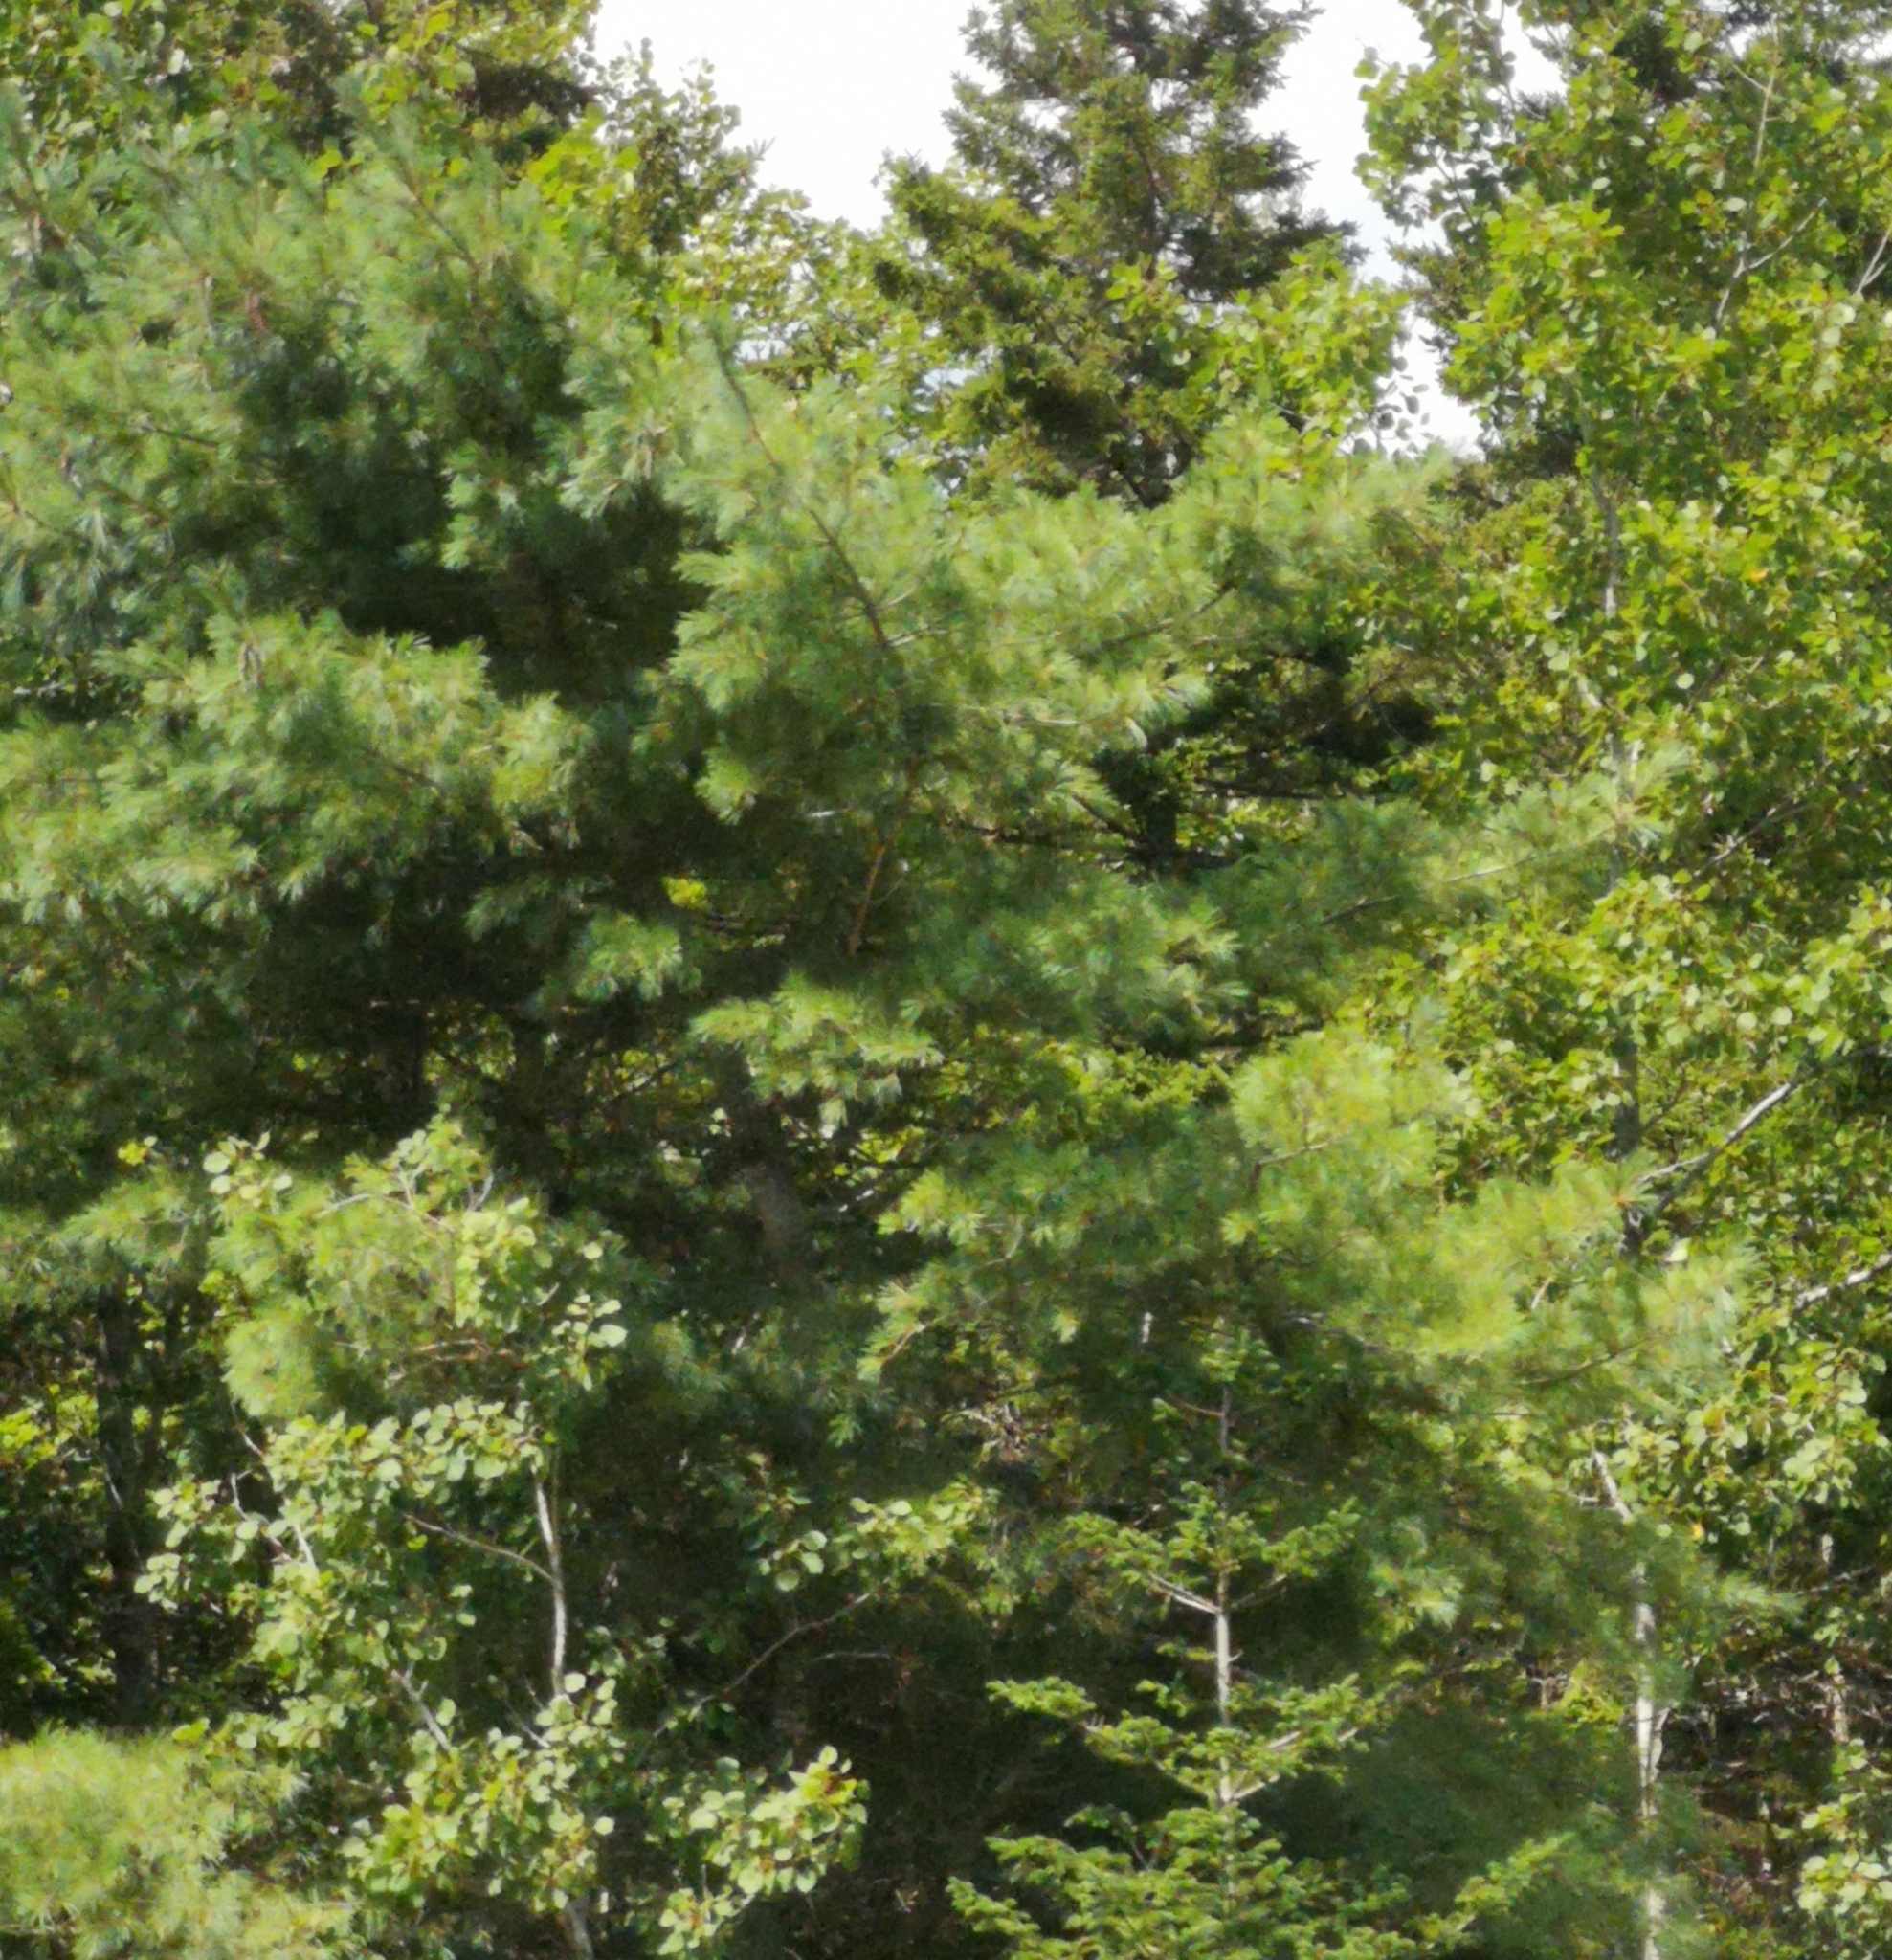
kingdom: Plantae
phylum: Tracheophyta
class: Pinopsida
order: Pinales
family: Pinaceae
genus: Pinus
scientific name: Pinus strobus
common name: Weymouth pine
